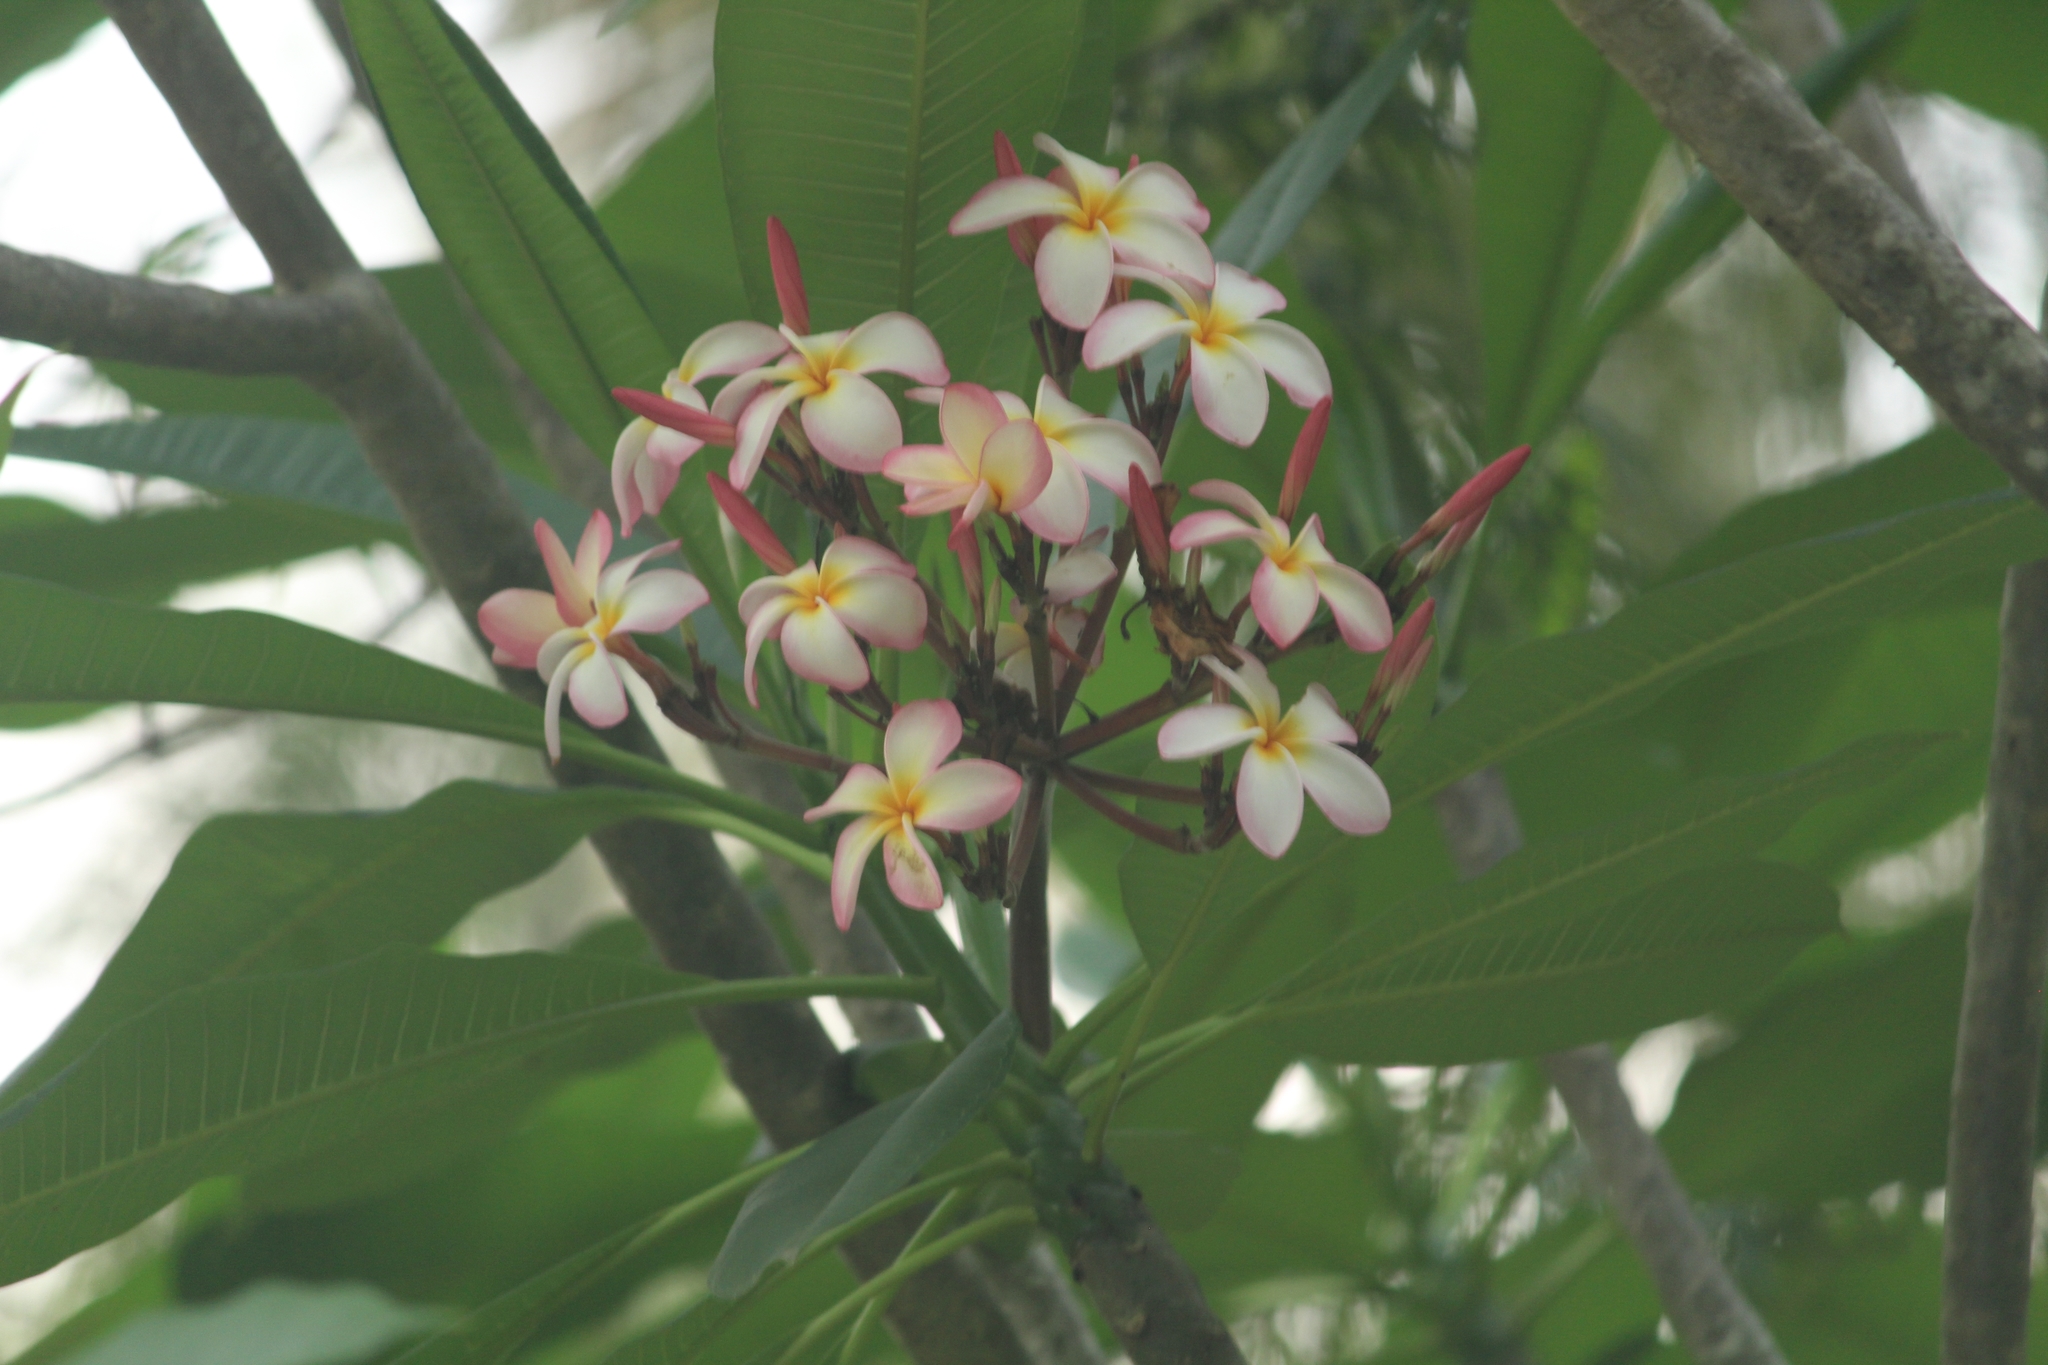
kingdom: Plantae
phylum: Tracheophyta
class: Magnoliopsida
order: Gentianales
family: Apocynaceae
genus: Plumeria
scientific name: Plumeria rubra
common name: Pagoda-tree
